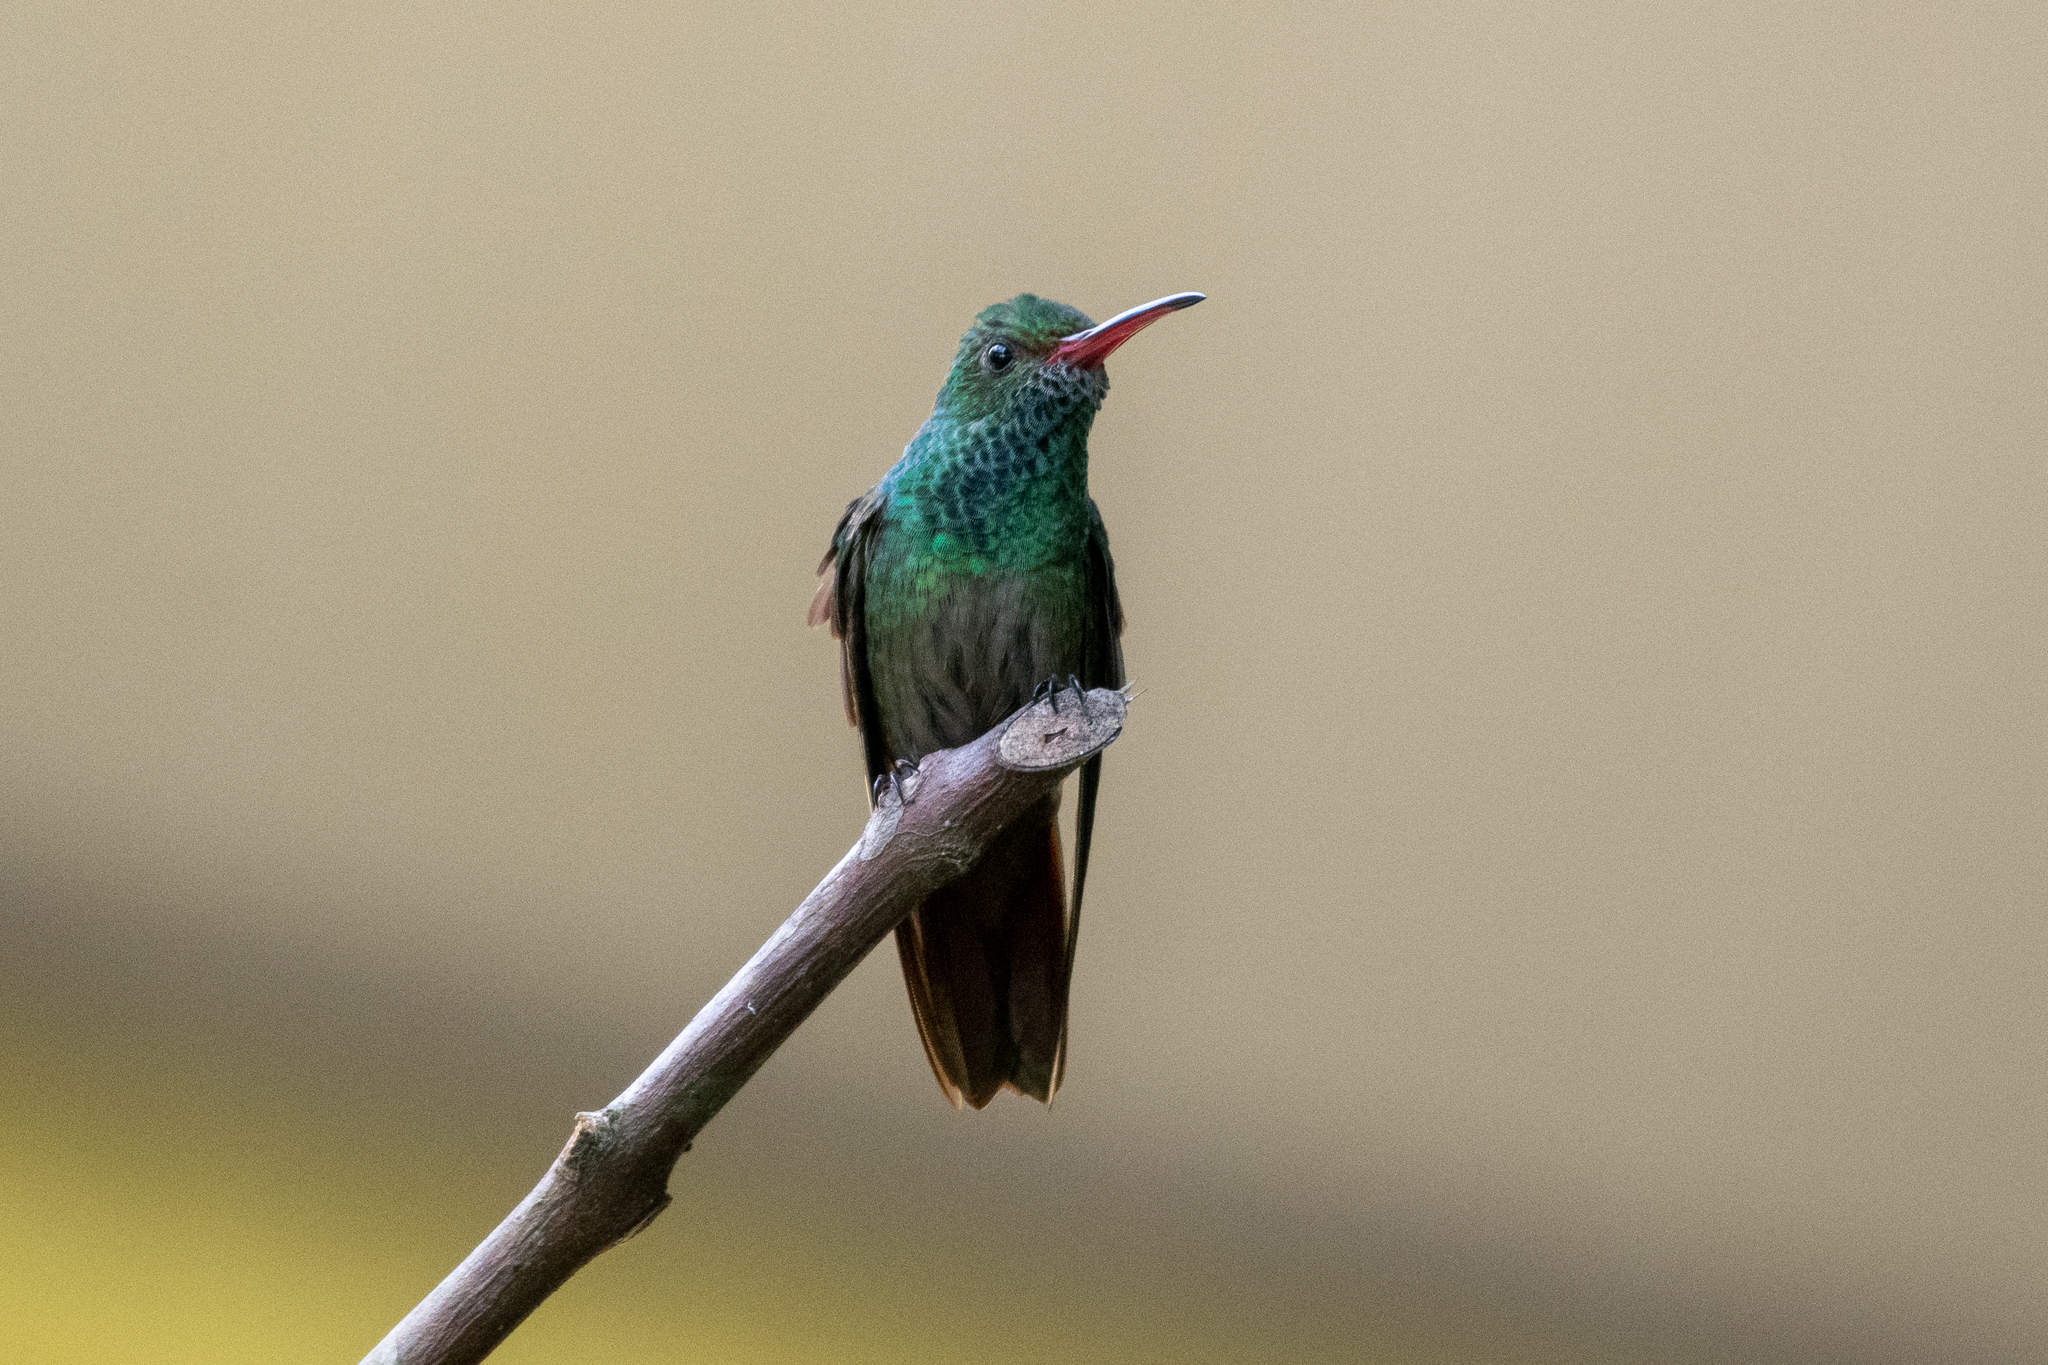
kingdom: Animalia
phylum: Chordata
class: Aves
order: Apodiformes
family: Trochilidae
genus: Amazilia
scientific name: Amazilia tzacatl
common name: Rufous-tailed hummingbird
